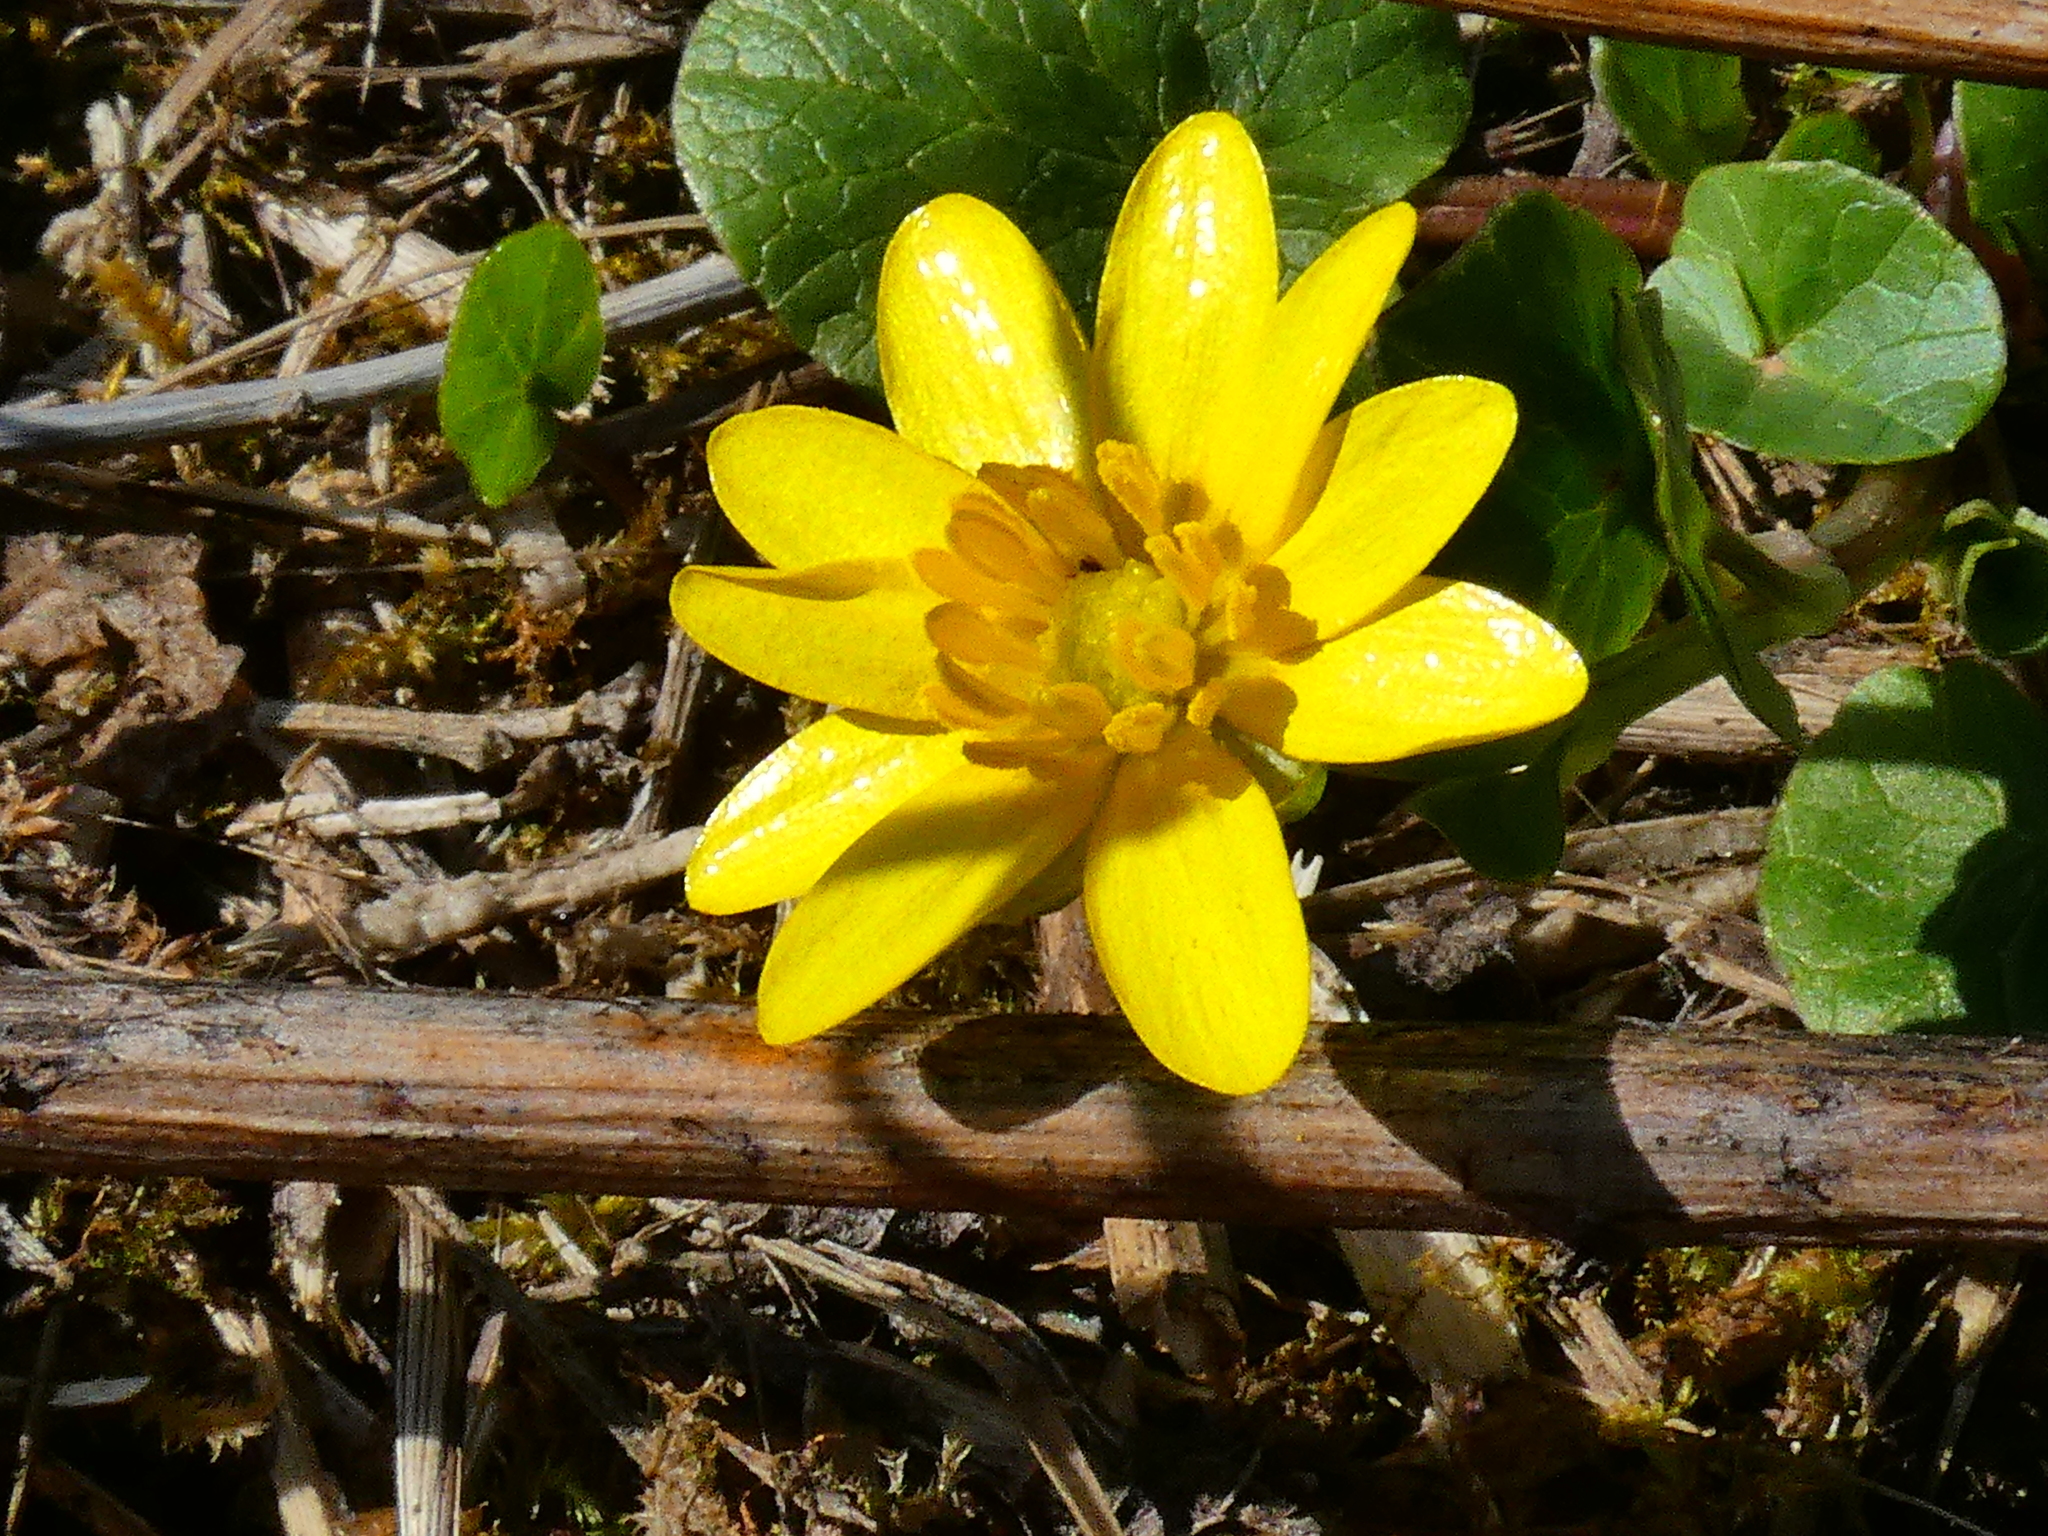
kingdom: Plantae
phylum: Tracheophyta
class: Magnoliopsida
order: Ranunculales
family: Ranunculaceae
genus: Ficaria
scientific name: Ficaria verna
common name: Lesser celandine
